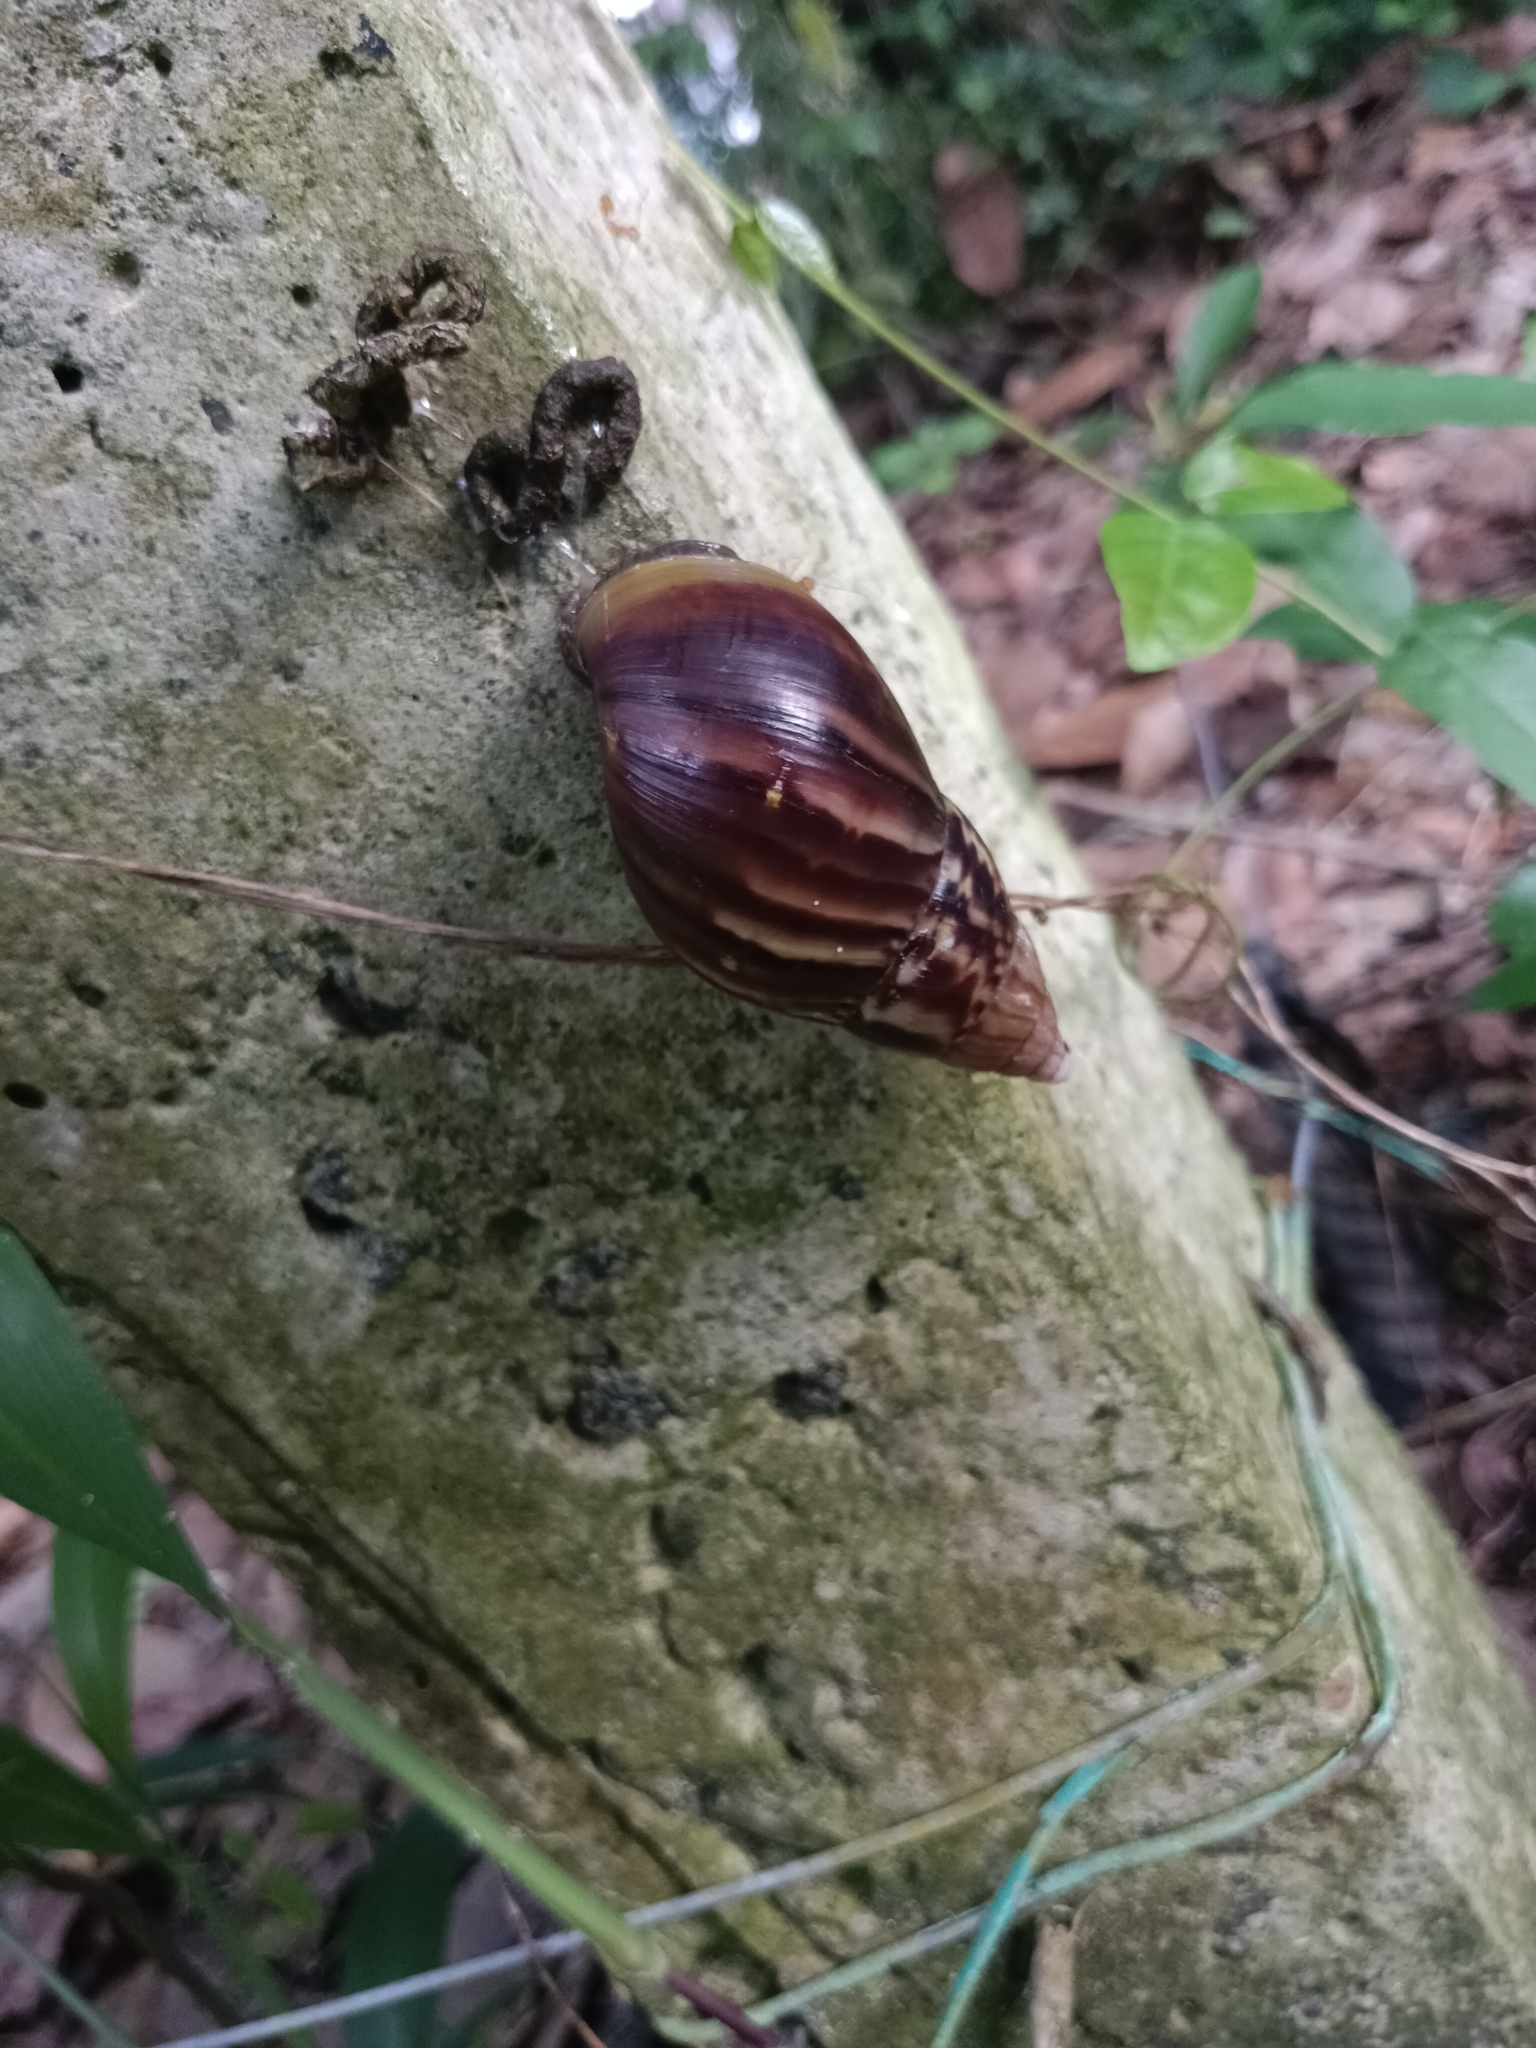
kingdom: Animalia
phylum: Mollusca
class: Gastropoda
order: Stylommatophora
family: Achatinidae
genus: Lissachatina
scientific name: Lissachatina fulica
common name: Giant african snail
